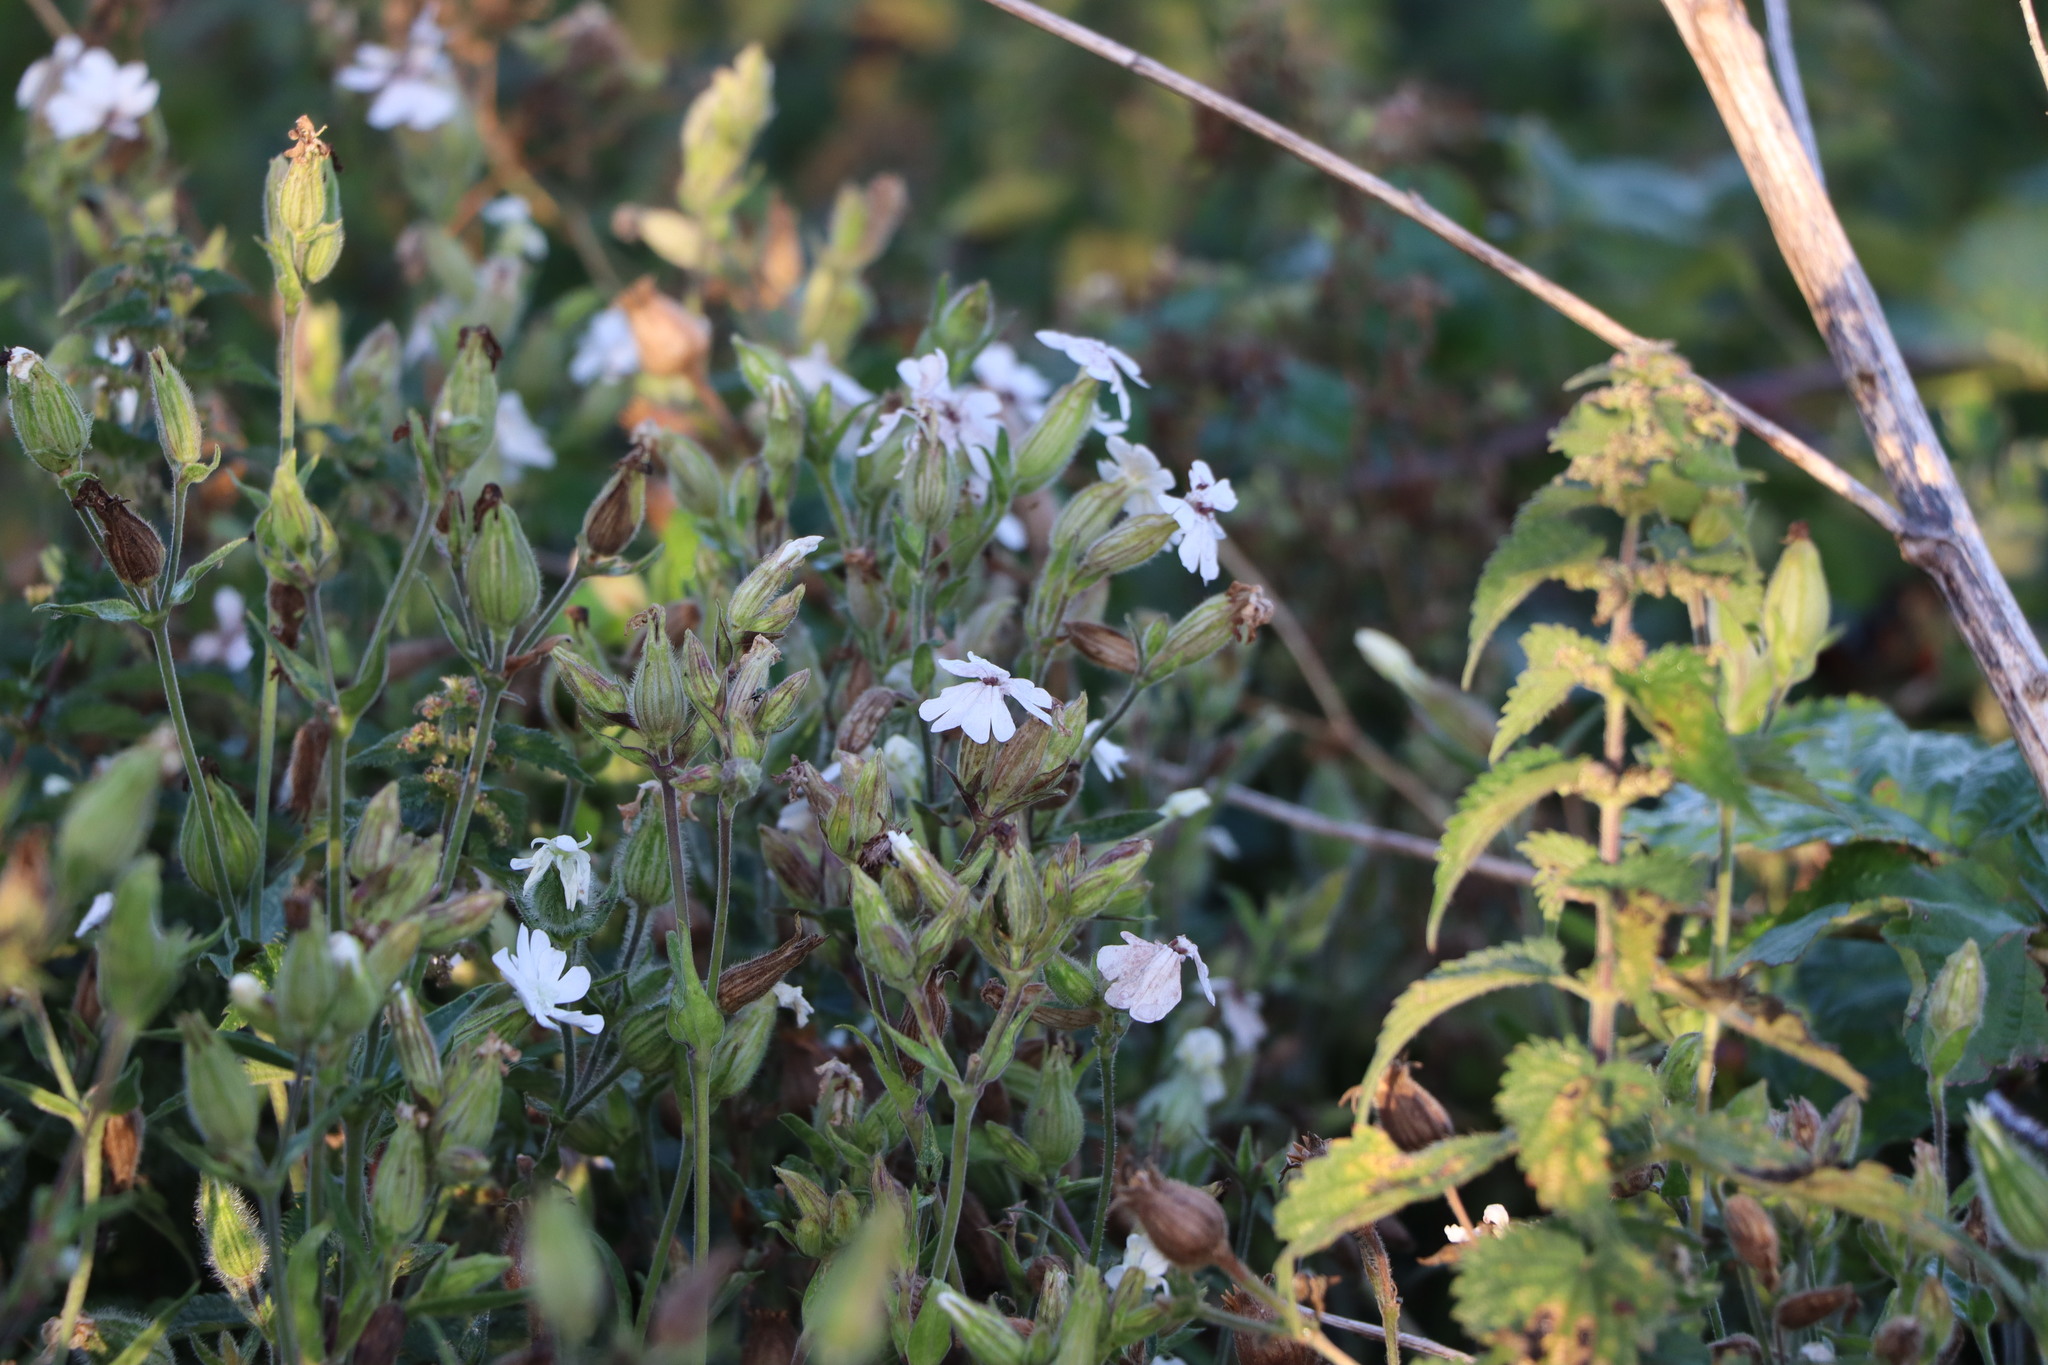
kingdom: Plantae
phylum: Tracheophyta
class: Magnoliopsida
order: Caryophyllales
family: Caryophyllaceae
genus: Silene
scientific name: Silene latifolia
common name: White campion
